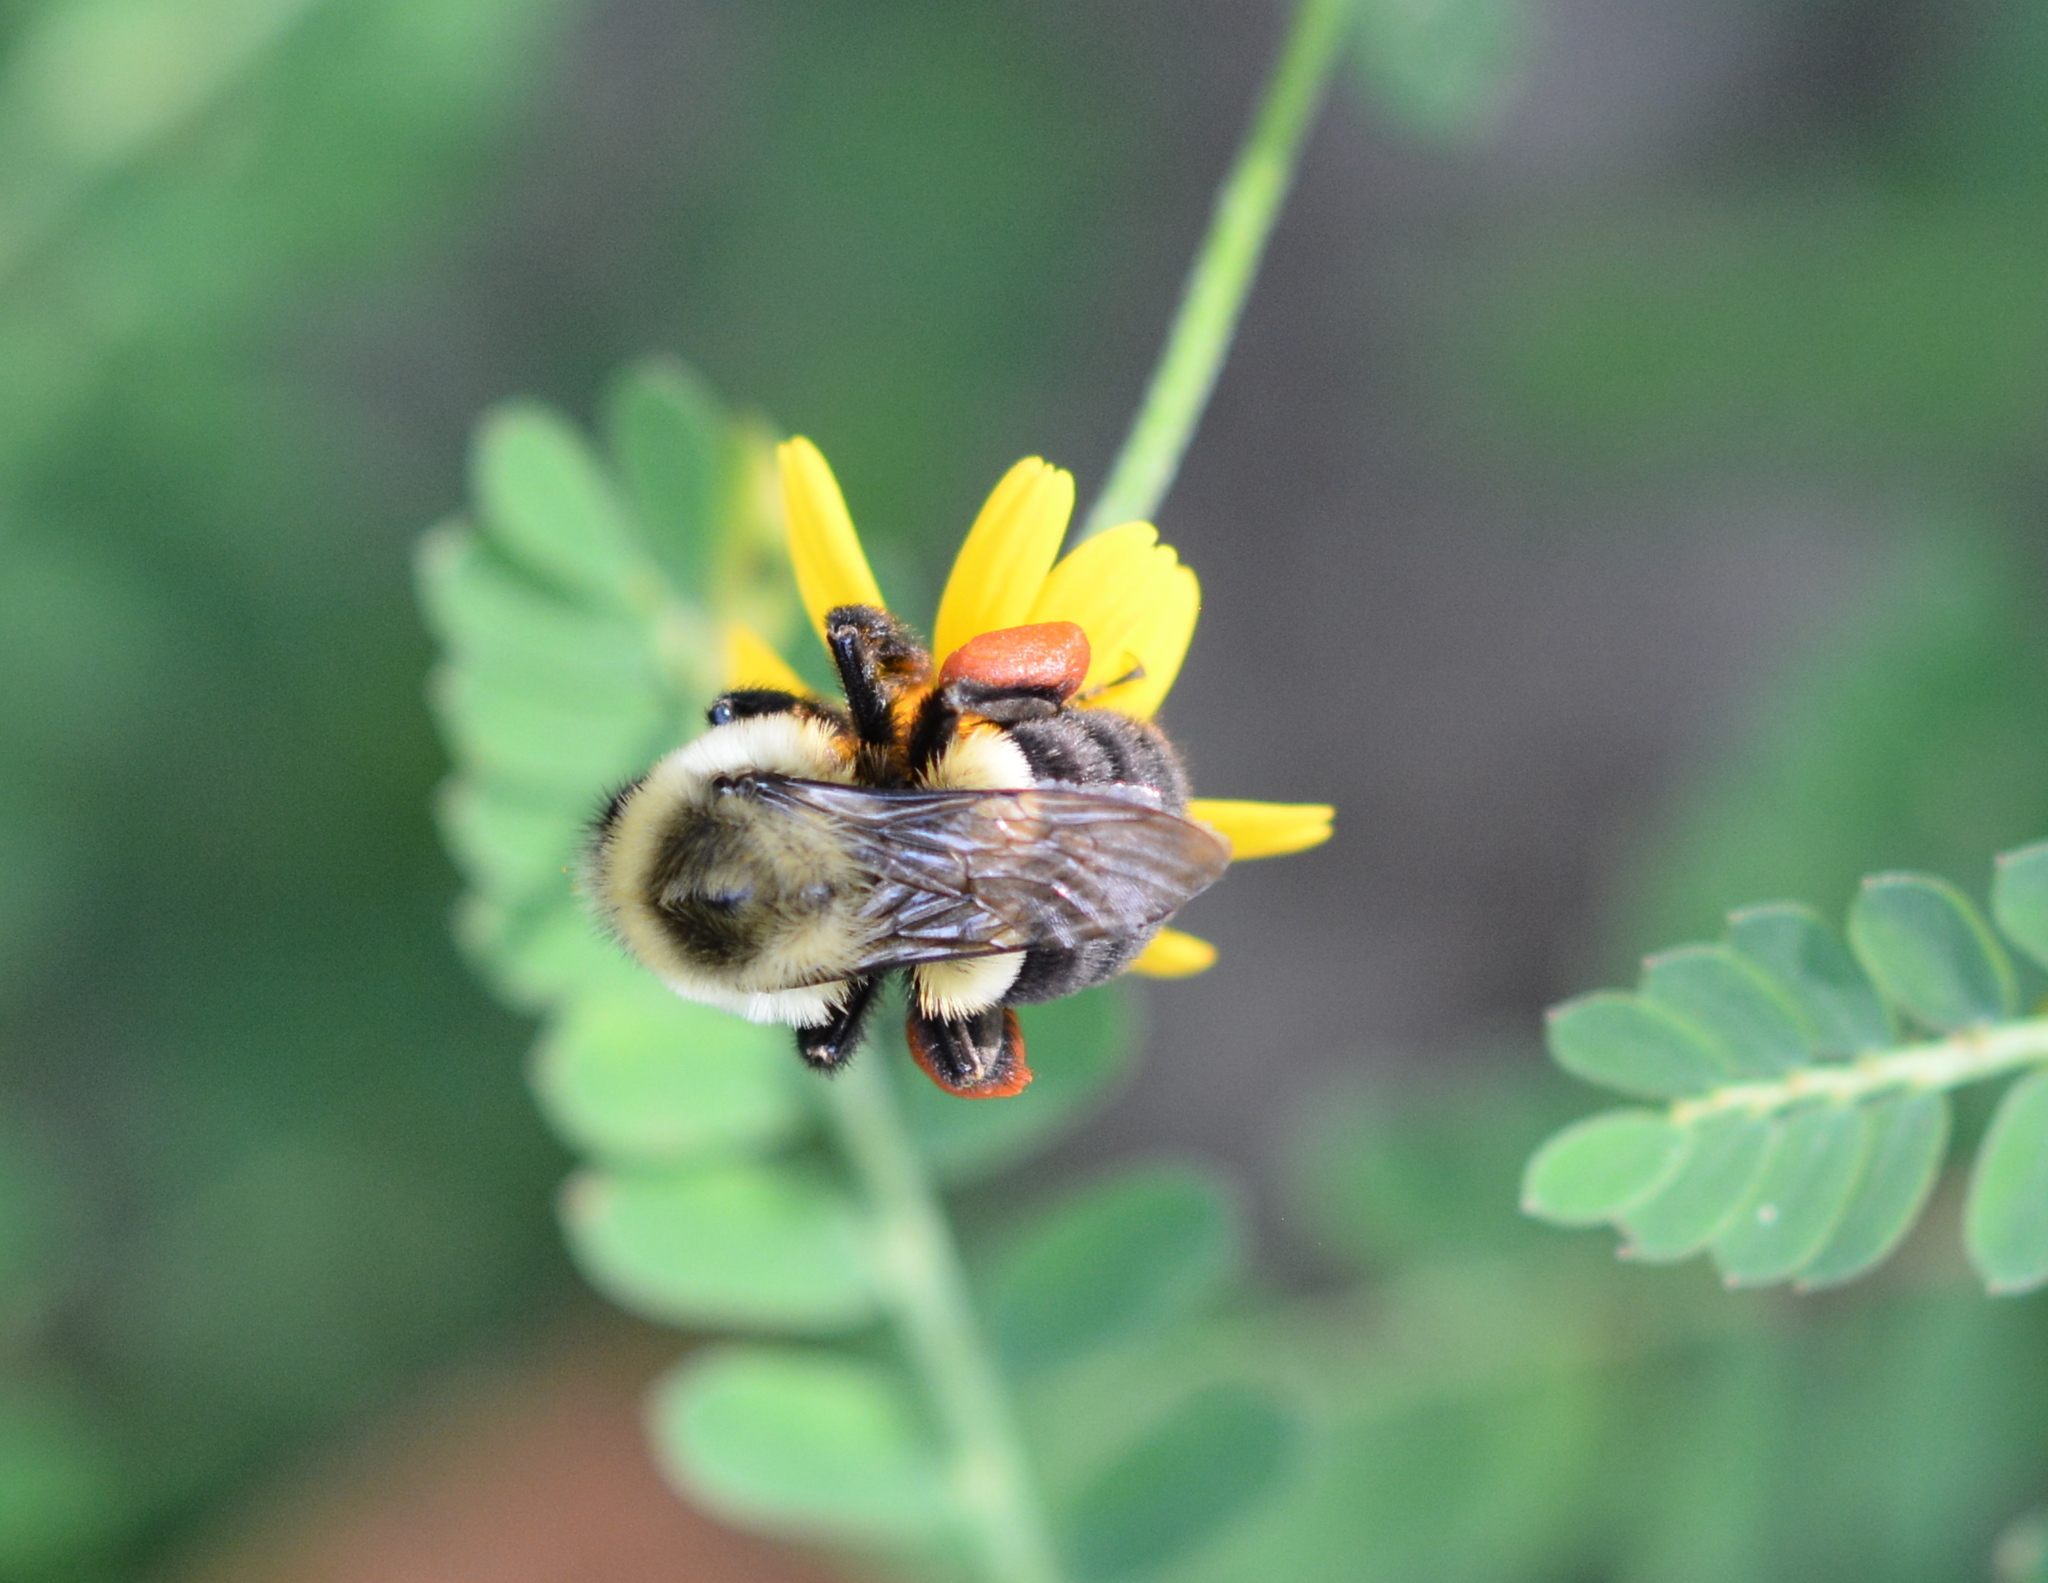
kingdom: Animalia
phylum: Arthropoda
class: Insecta
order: Hymenoptera
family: Apidae
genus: Bombus
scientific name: Bombus impatiens
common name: Common eastern bumble bee
